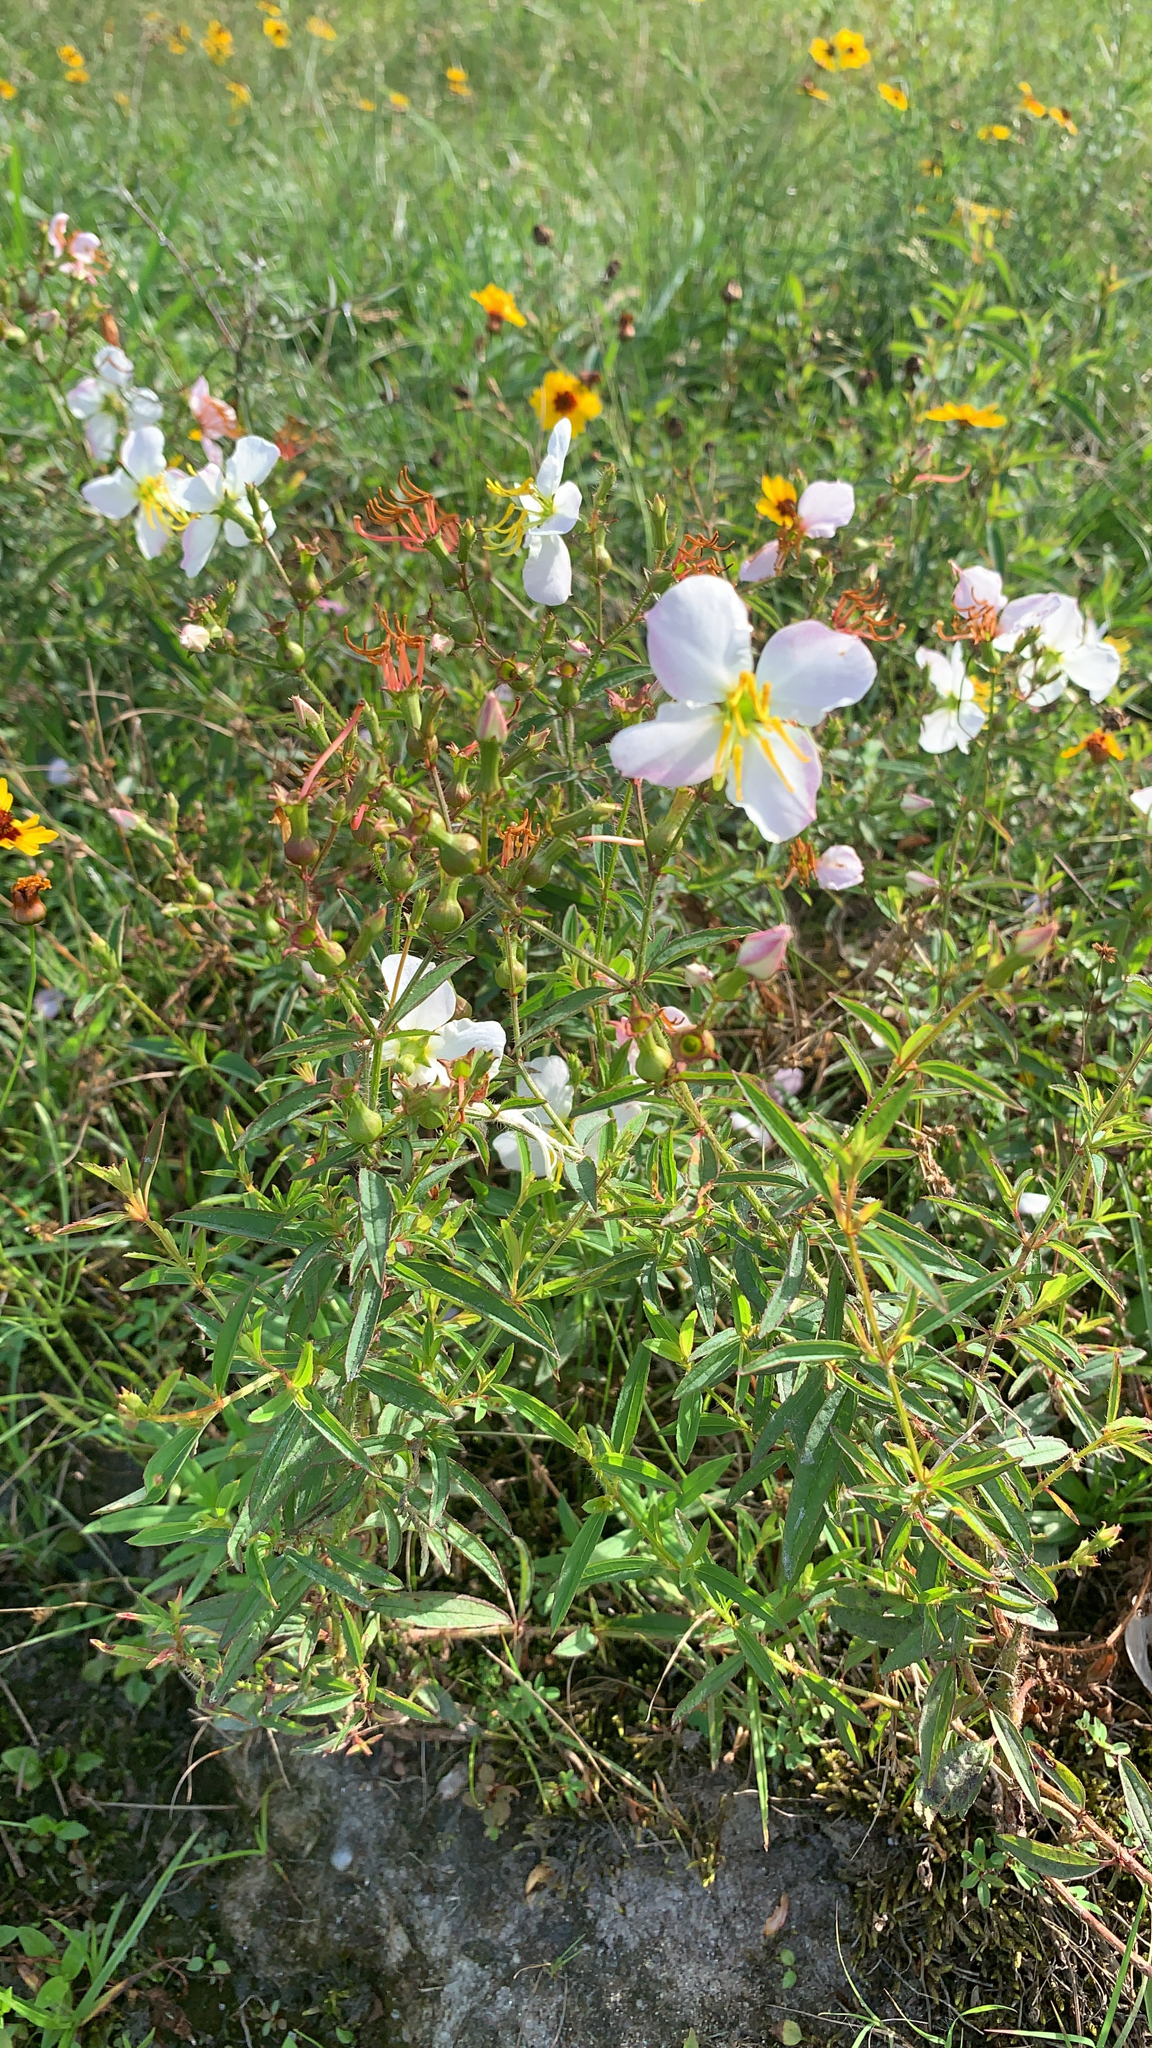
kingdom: Plantae
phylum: Tracheophyta
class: Magnoliopsida
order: Myrtales
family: Melastomataceae
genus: Rhexia
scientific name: Rhexia mariana
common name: Dull meadow-pitcher
